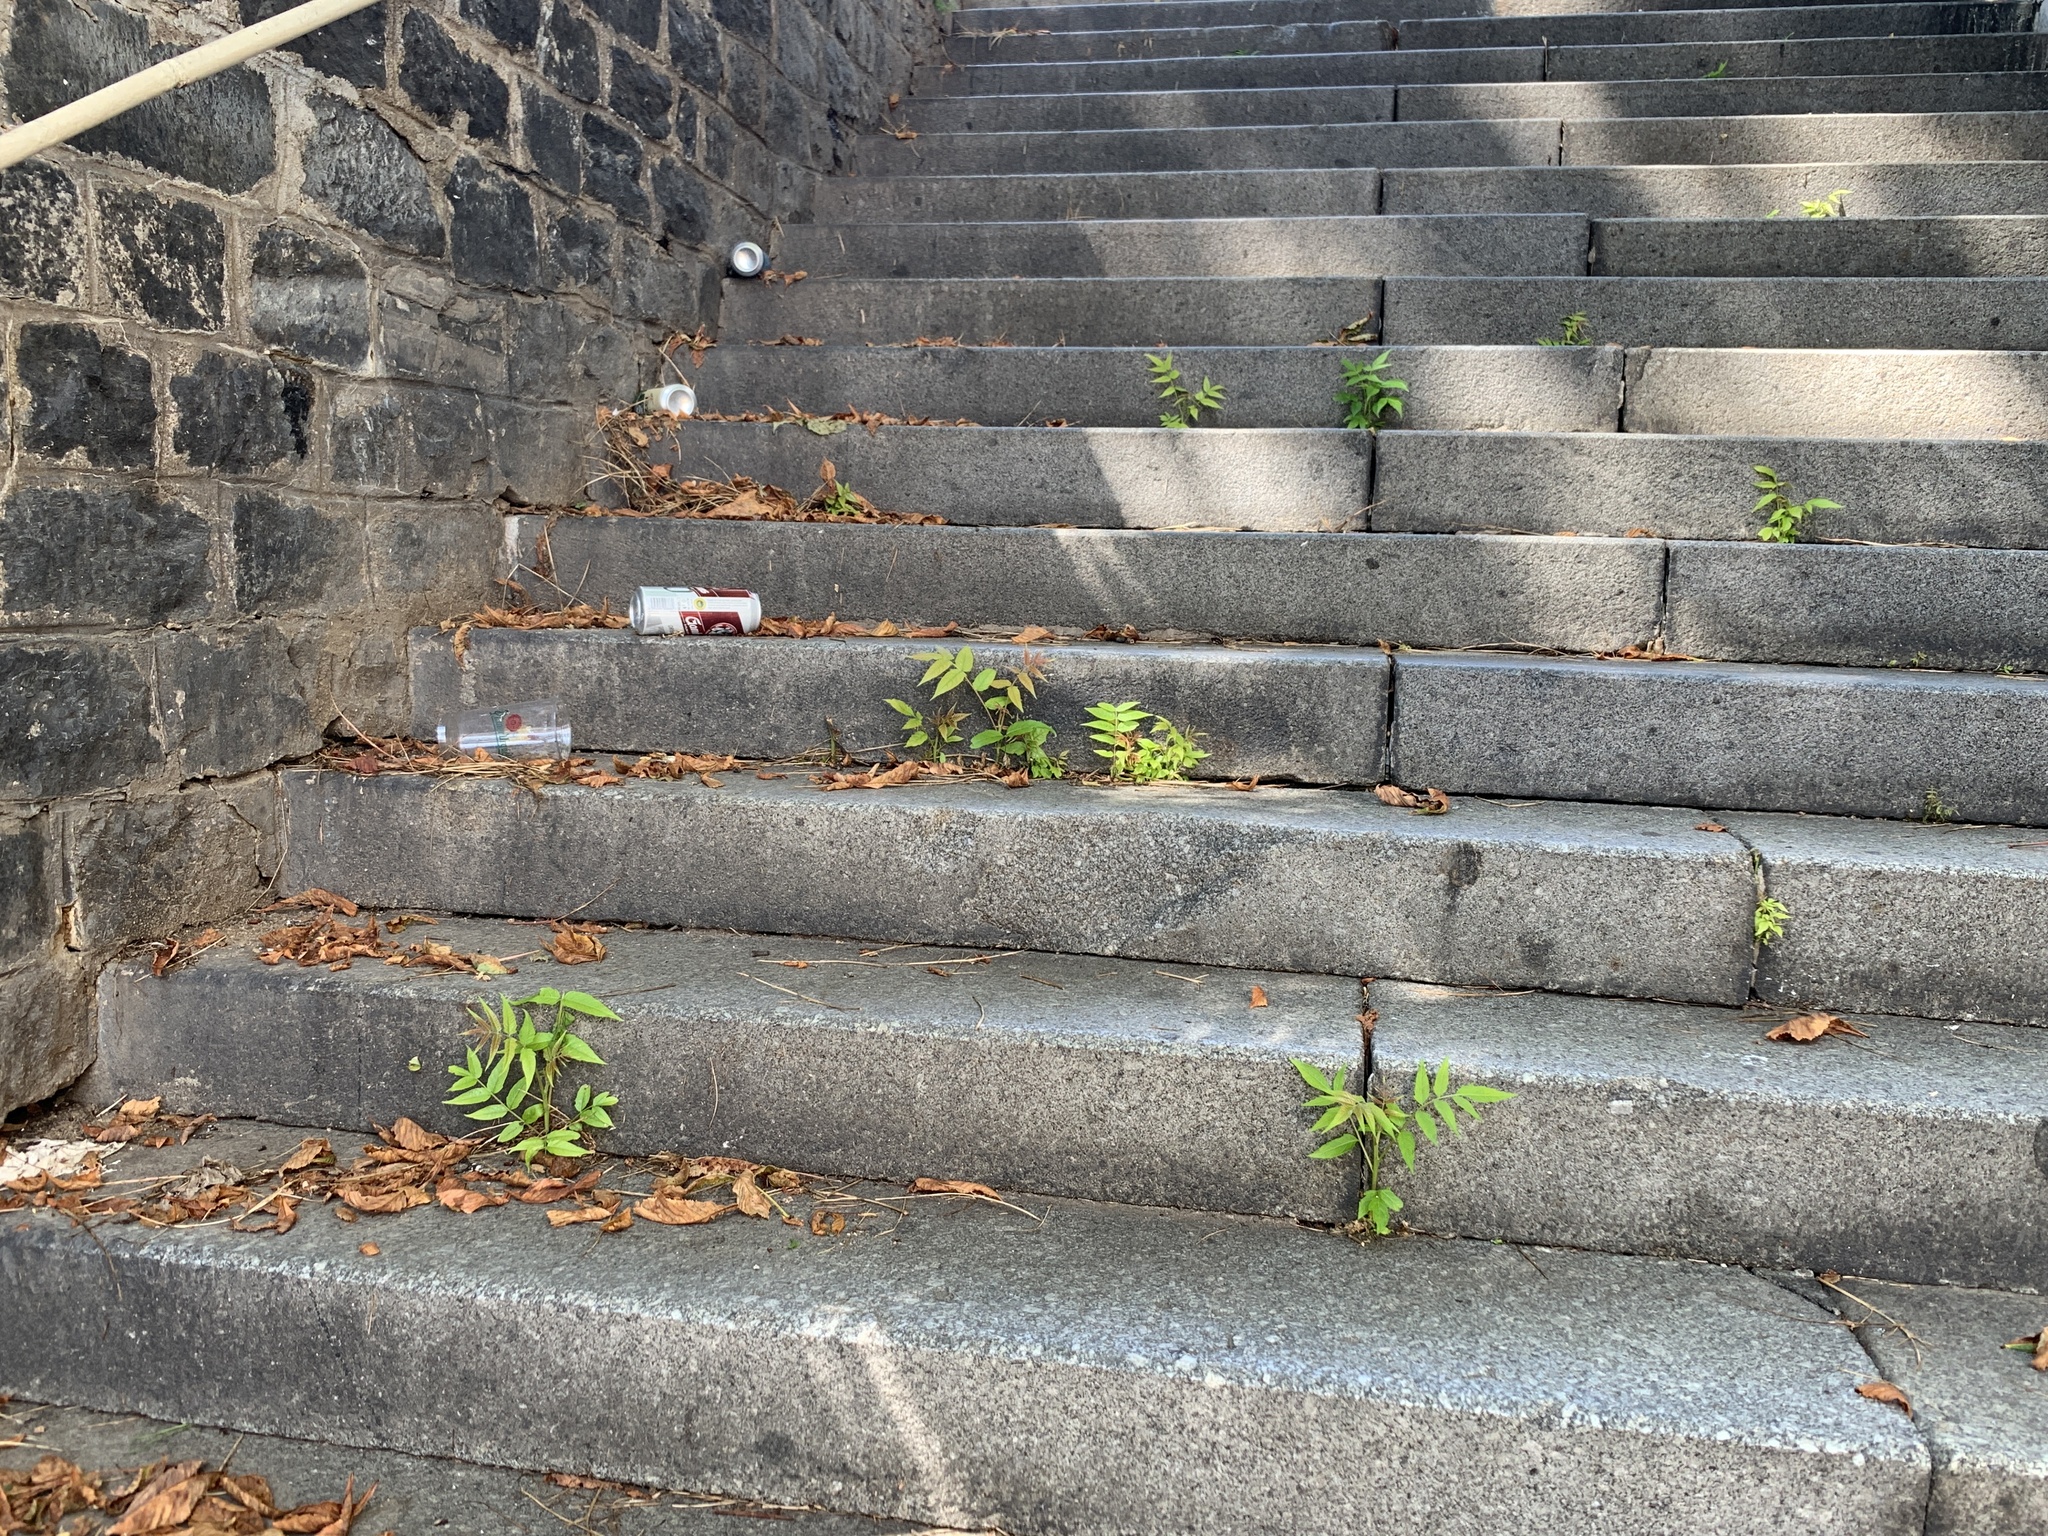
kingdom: Plantae
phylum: Tracheophyta
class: Magnoliopsida
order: Sapindales
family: Simaroubaceae
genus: Ailanthus
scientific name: Ailanthus altissima
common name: Tree-of-heaven
